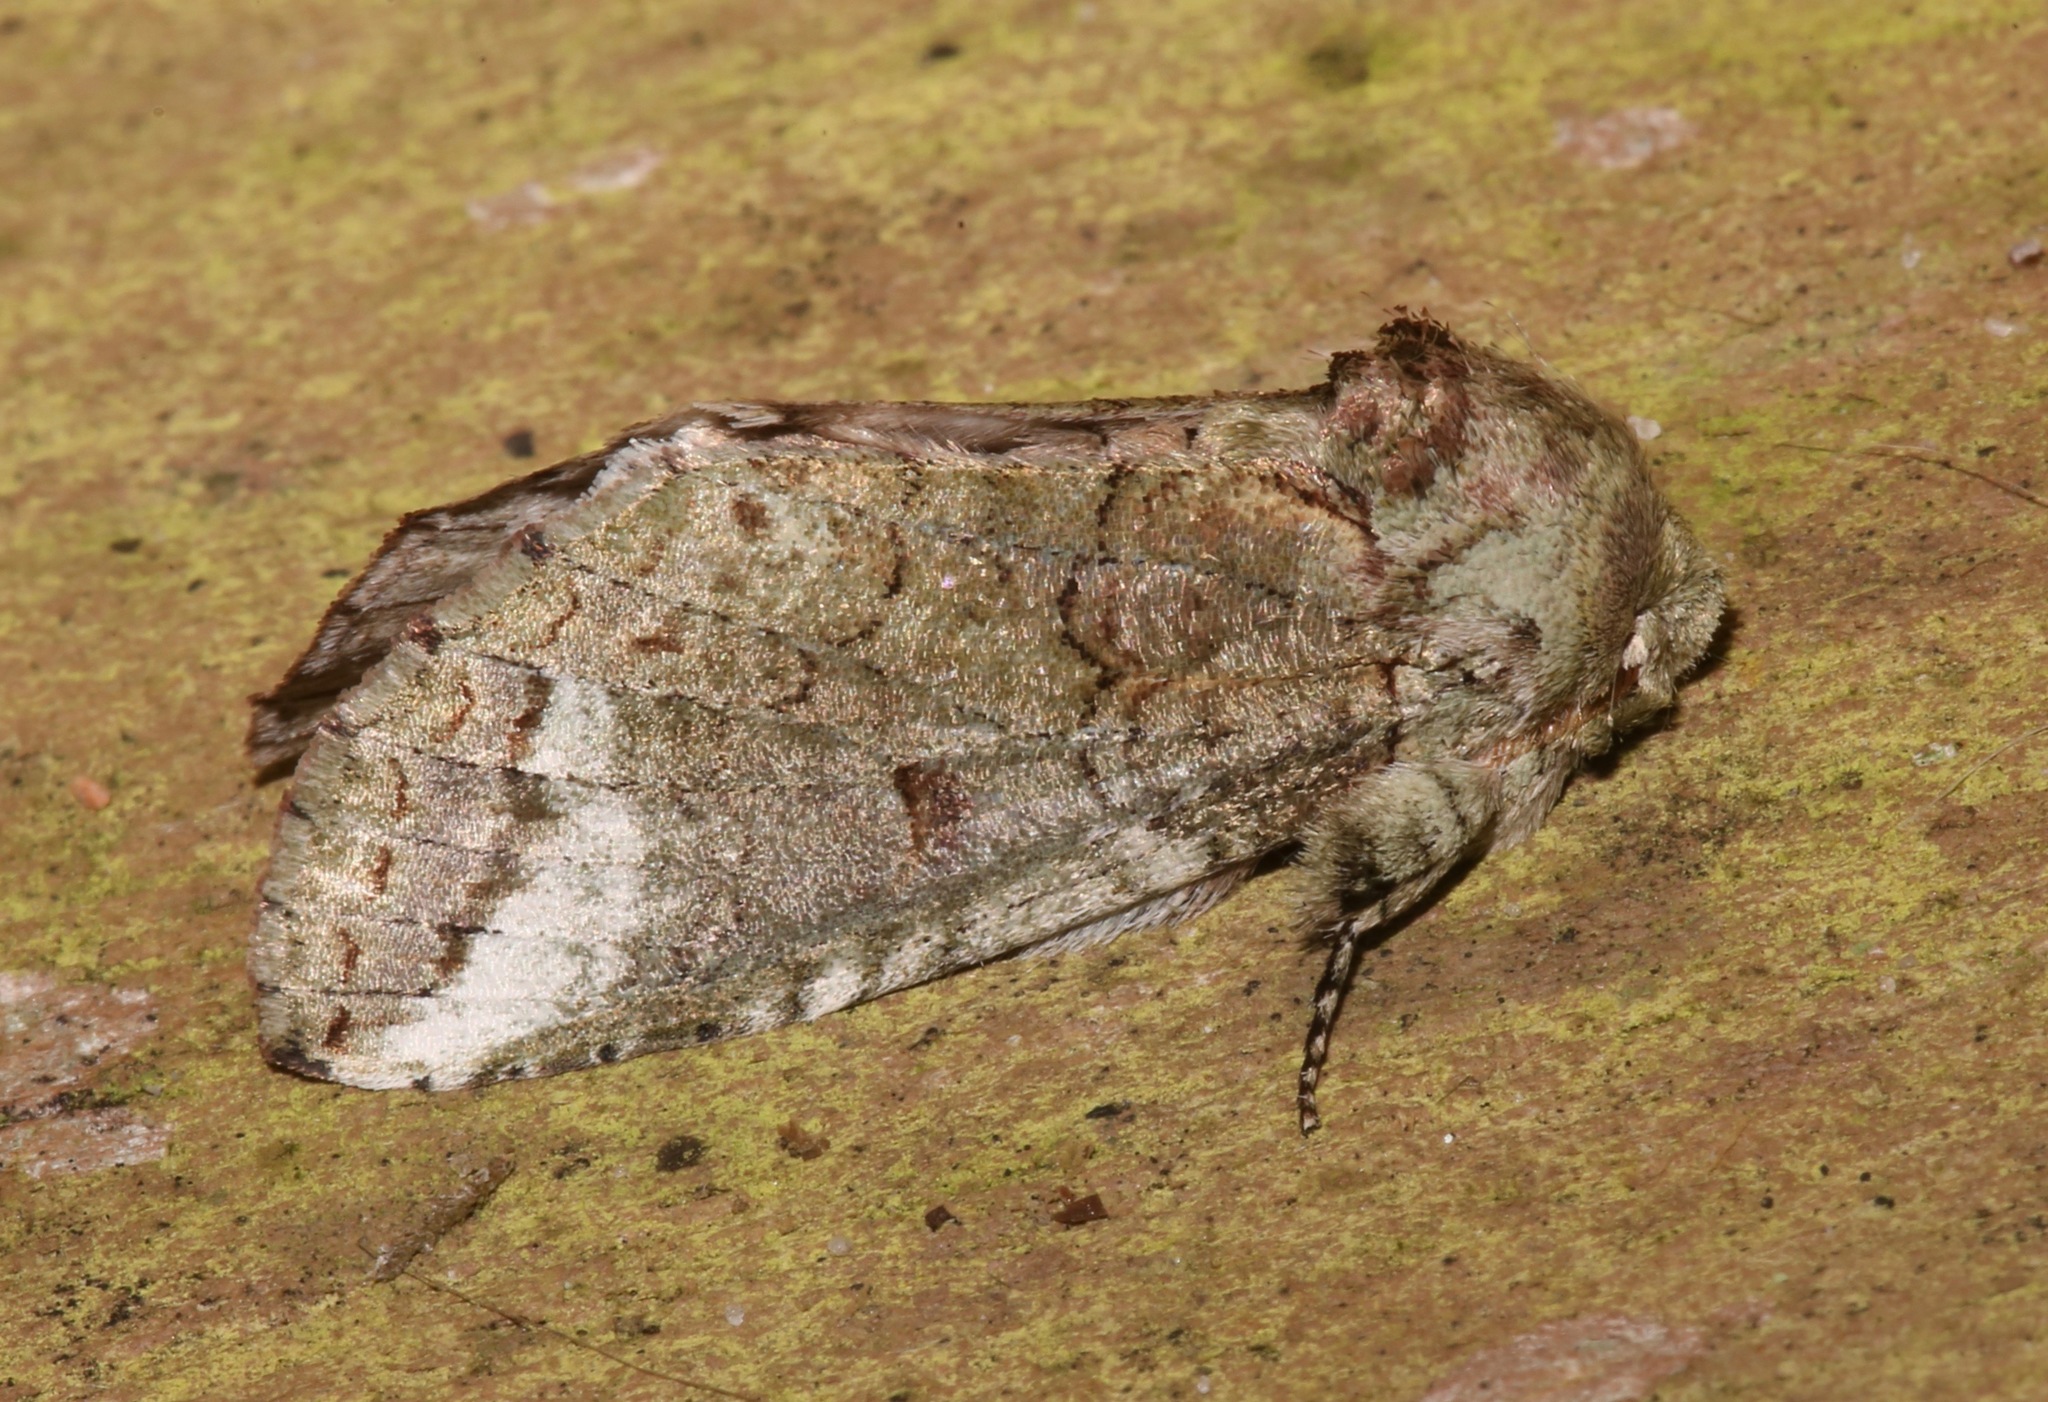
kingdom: Animalia
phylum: Arthropoda
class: Insecta
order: Lepidoptera
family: Notodontidae
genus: Heterocampa
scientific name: Heterocampa astarte
